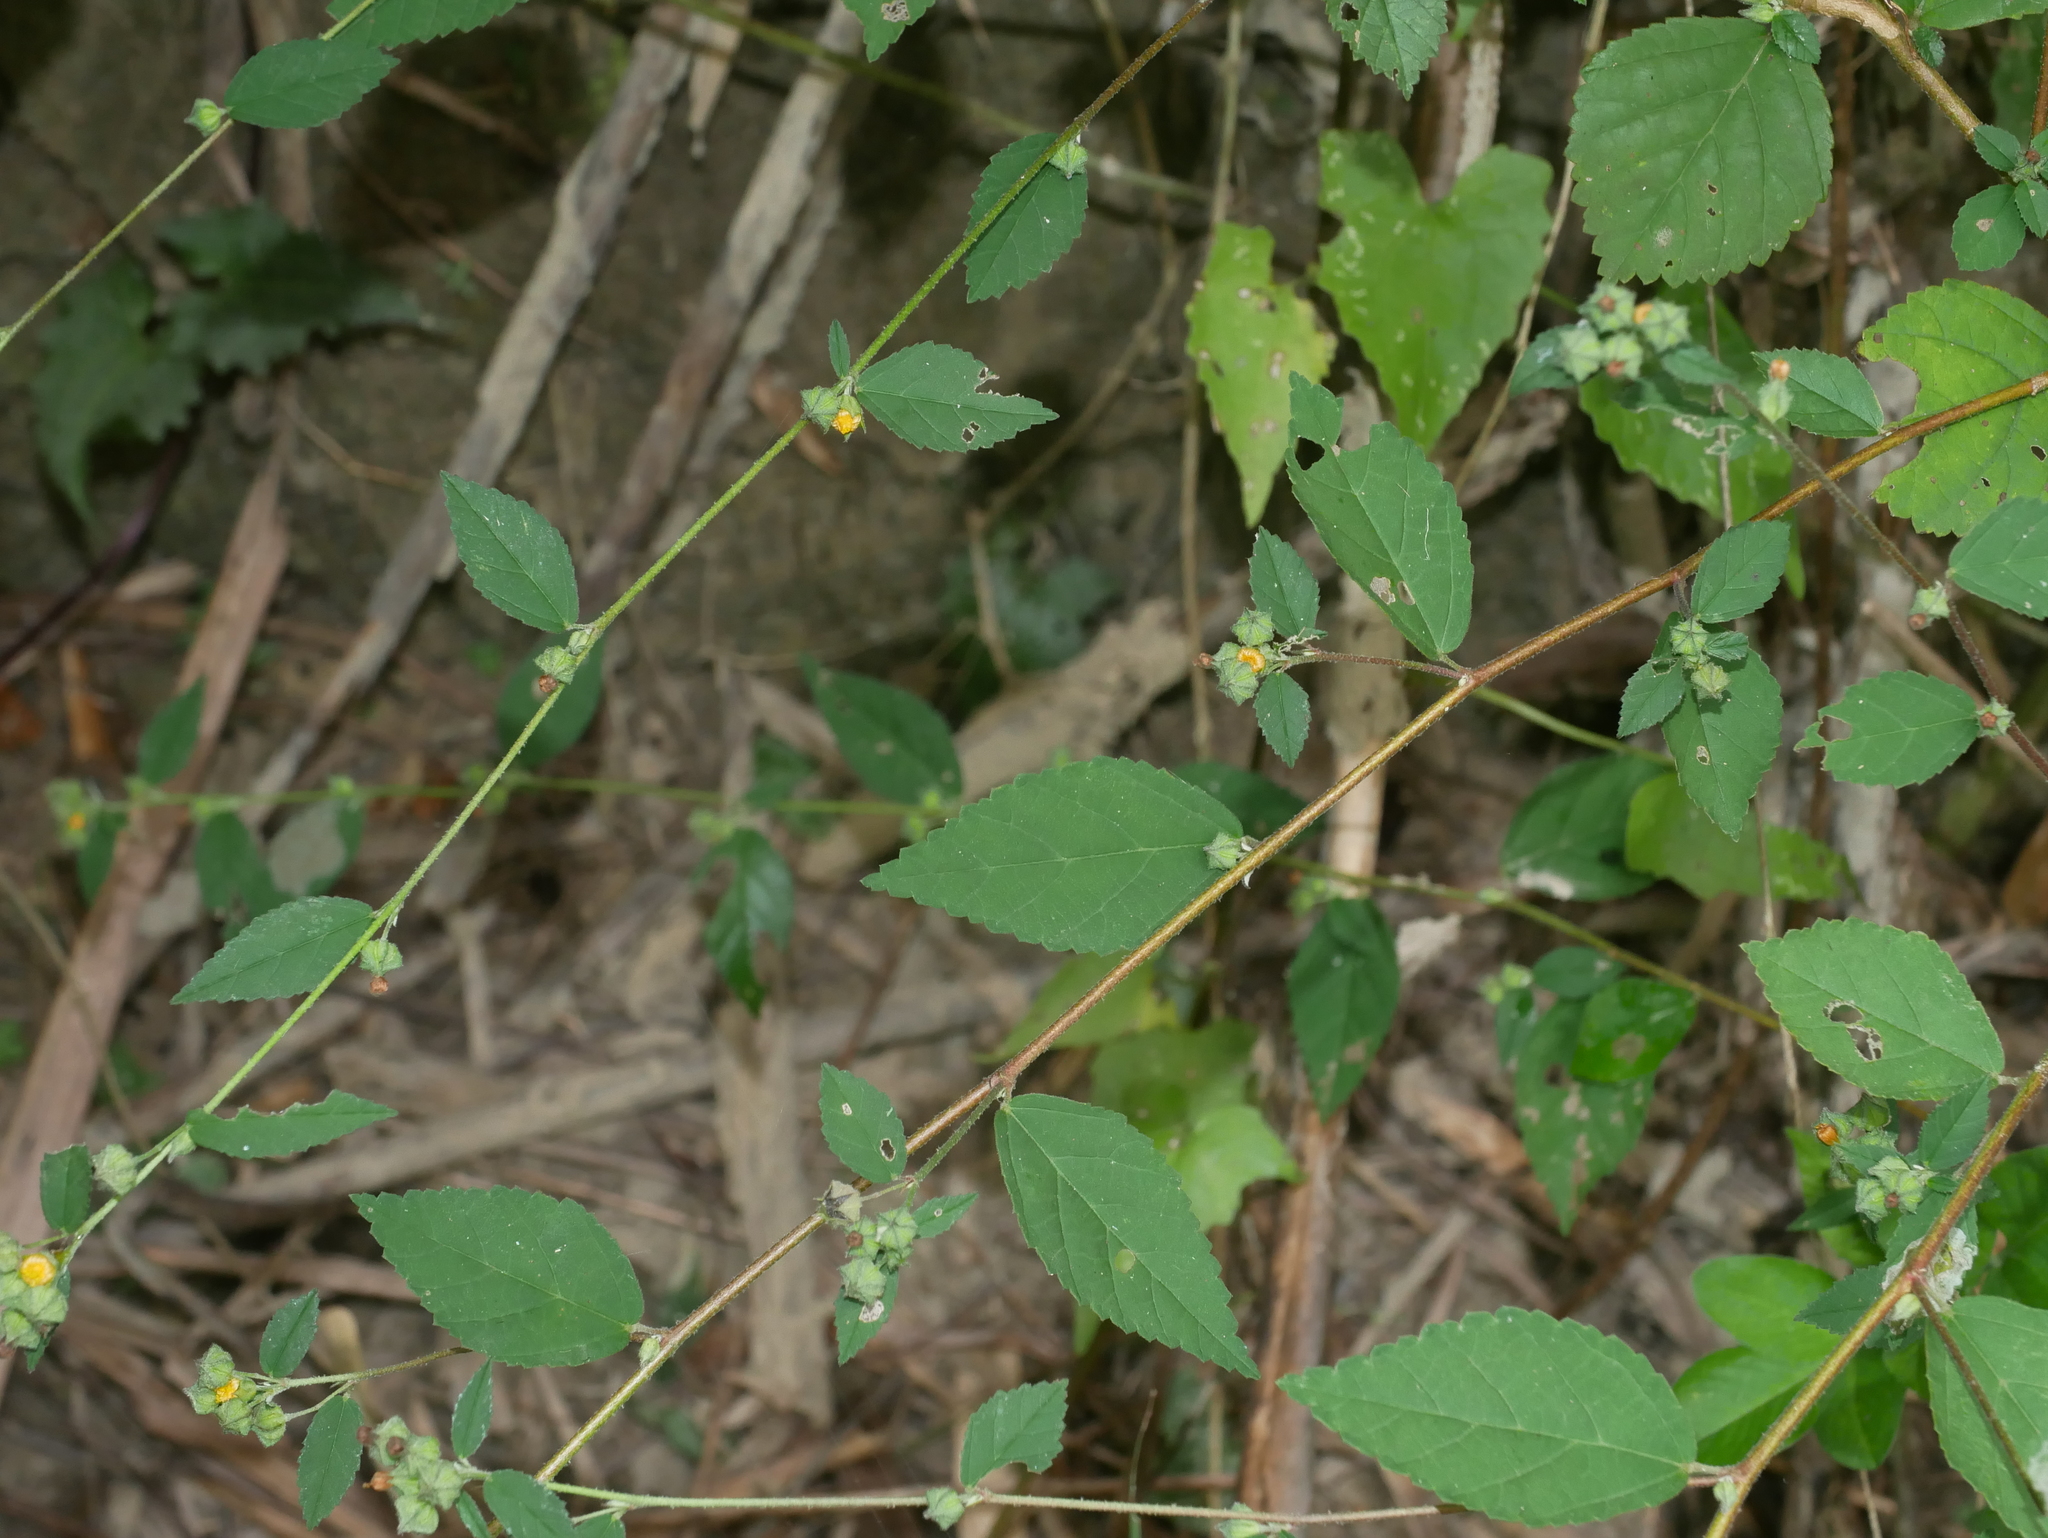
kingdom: Plantae
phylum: Tracheophyta
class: Magnoliopsida
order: Malvales
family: Malvaceae
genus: Sida
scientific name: Sida rhombifolia
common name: Queensland-hemp
